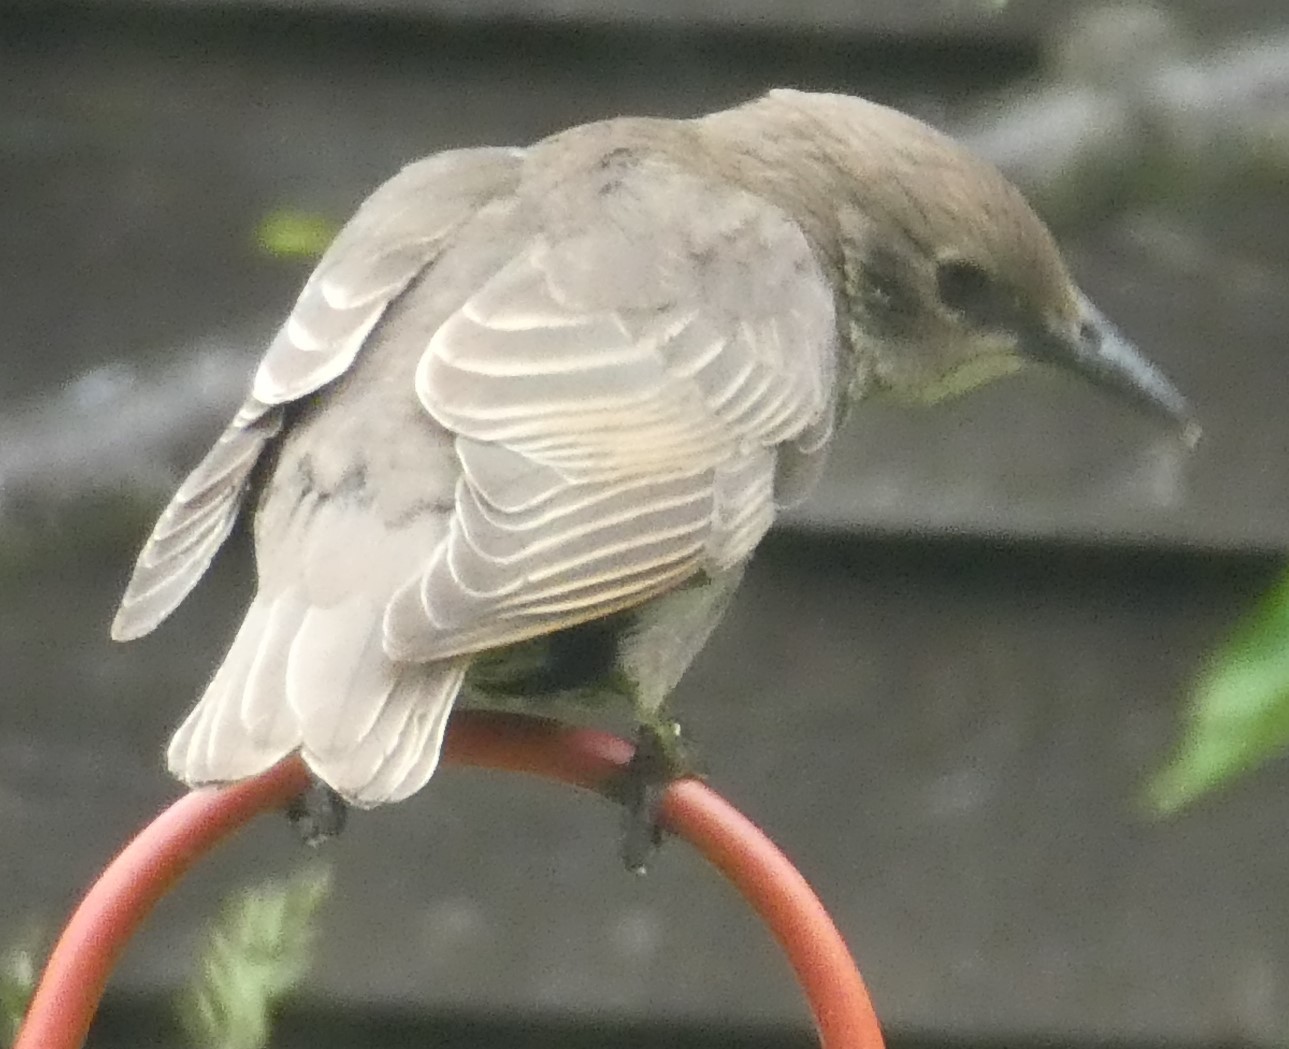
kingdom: Animalia
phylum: Chordata
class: Aves
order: Passeriformes
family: Sturnidae
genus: Sturnus
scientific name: Sturnus vulgaris
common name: Common starling
